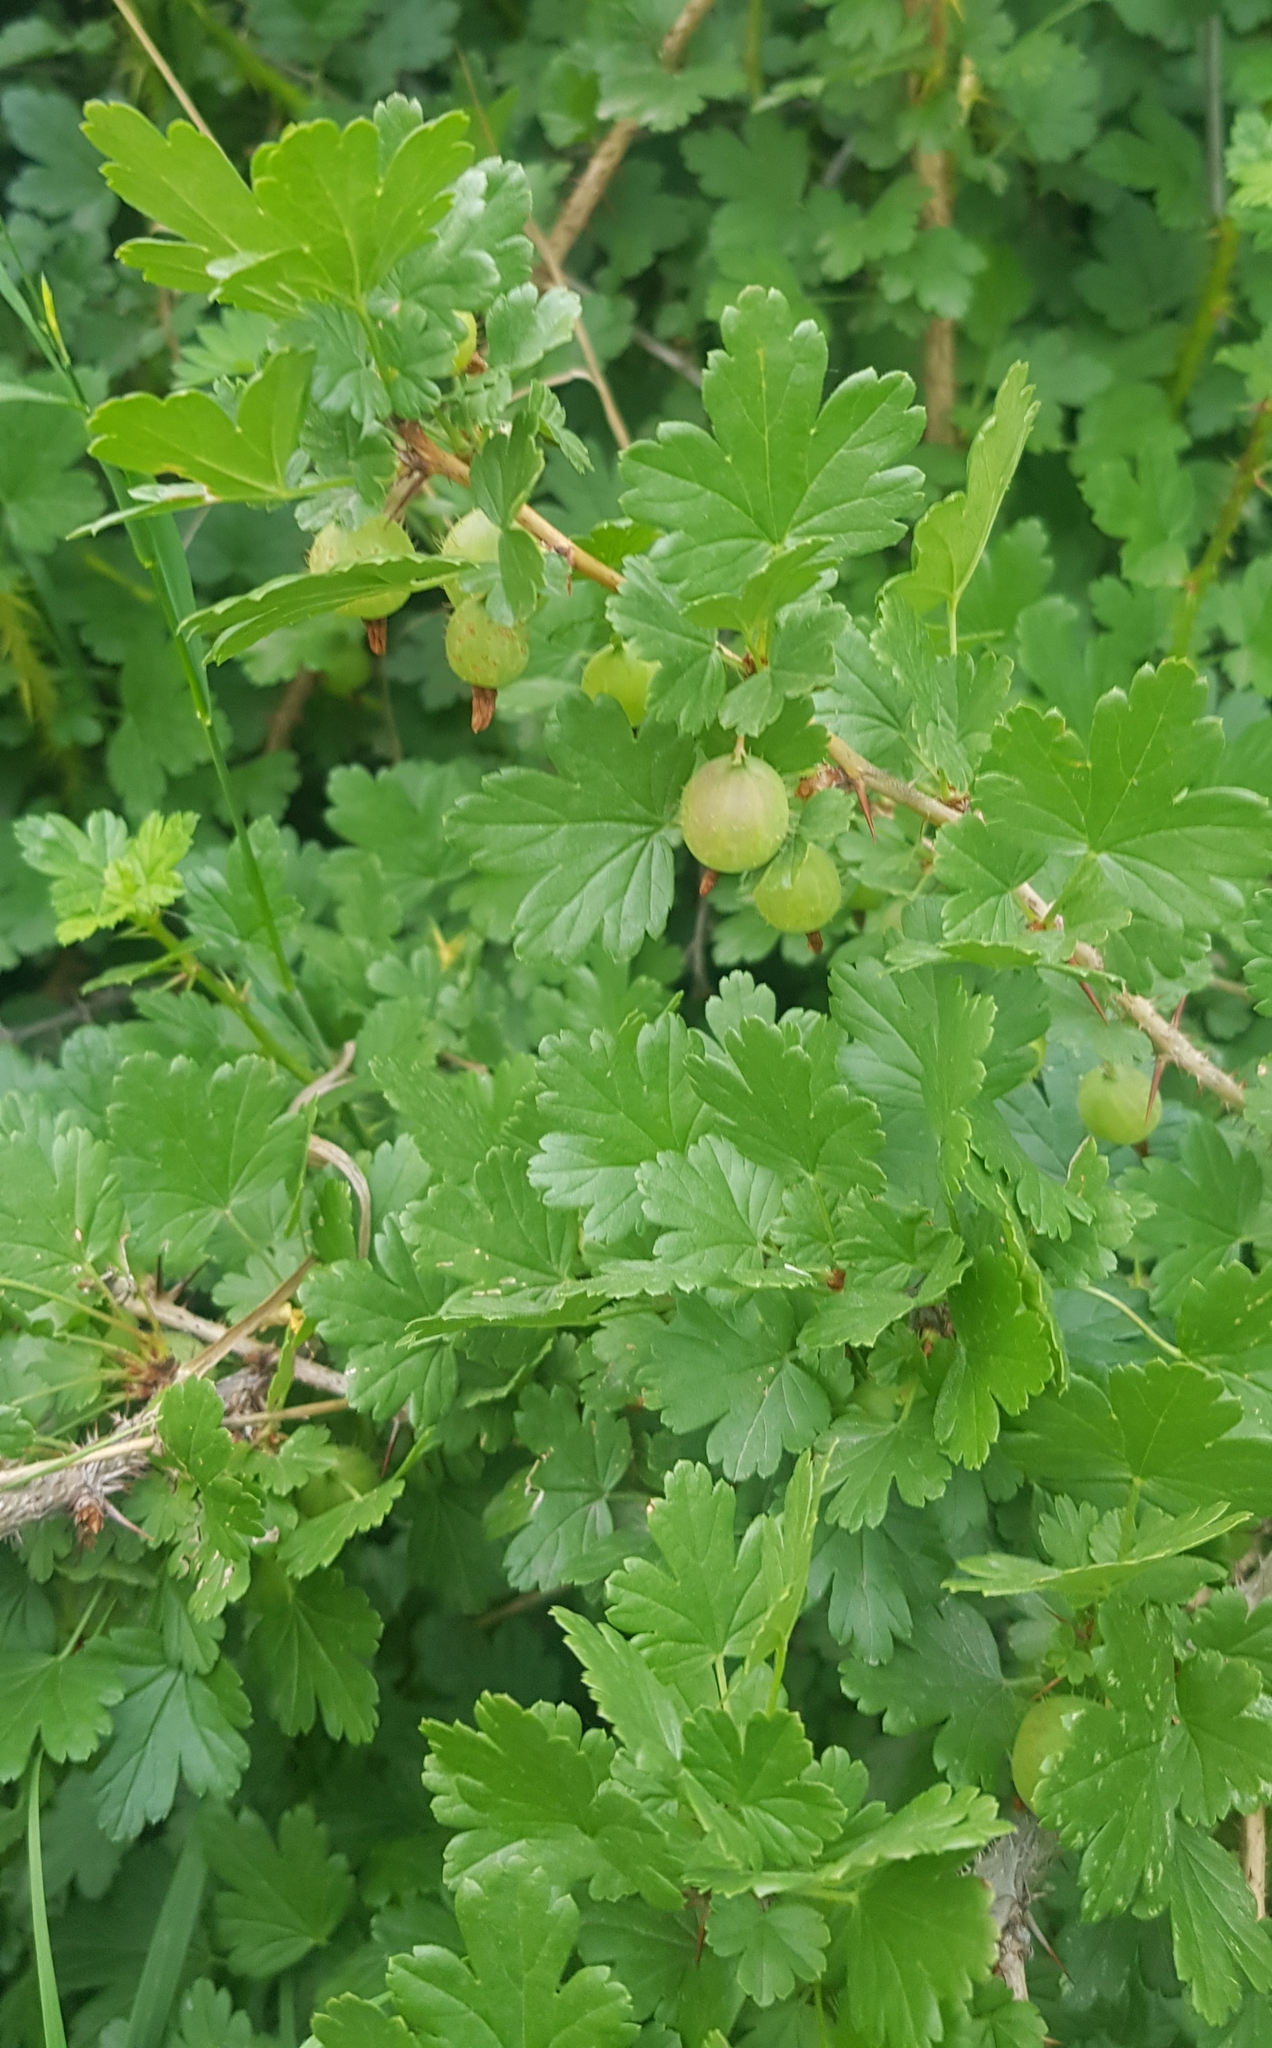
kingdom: Plantae
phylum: Tracheophyta
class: Magnoliopsida
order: Saxifragales
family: Grossulariaceae
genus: Ribes
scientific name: Ribes aciculare
